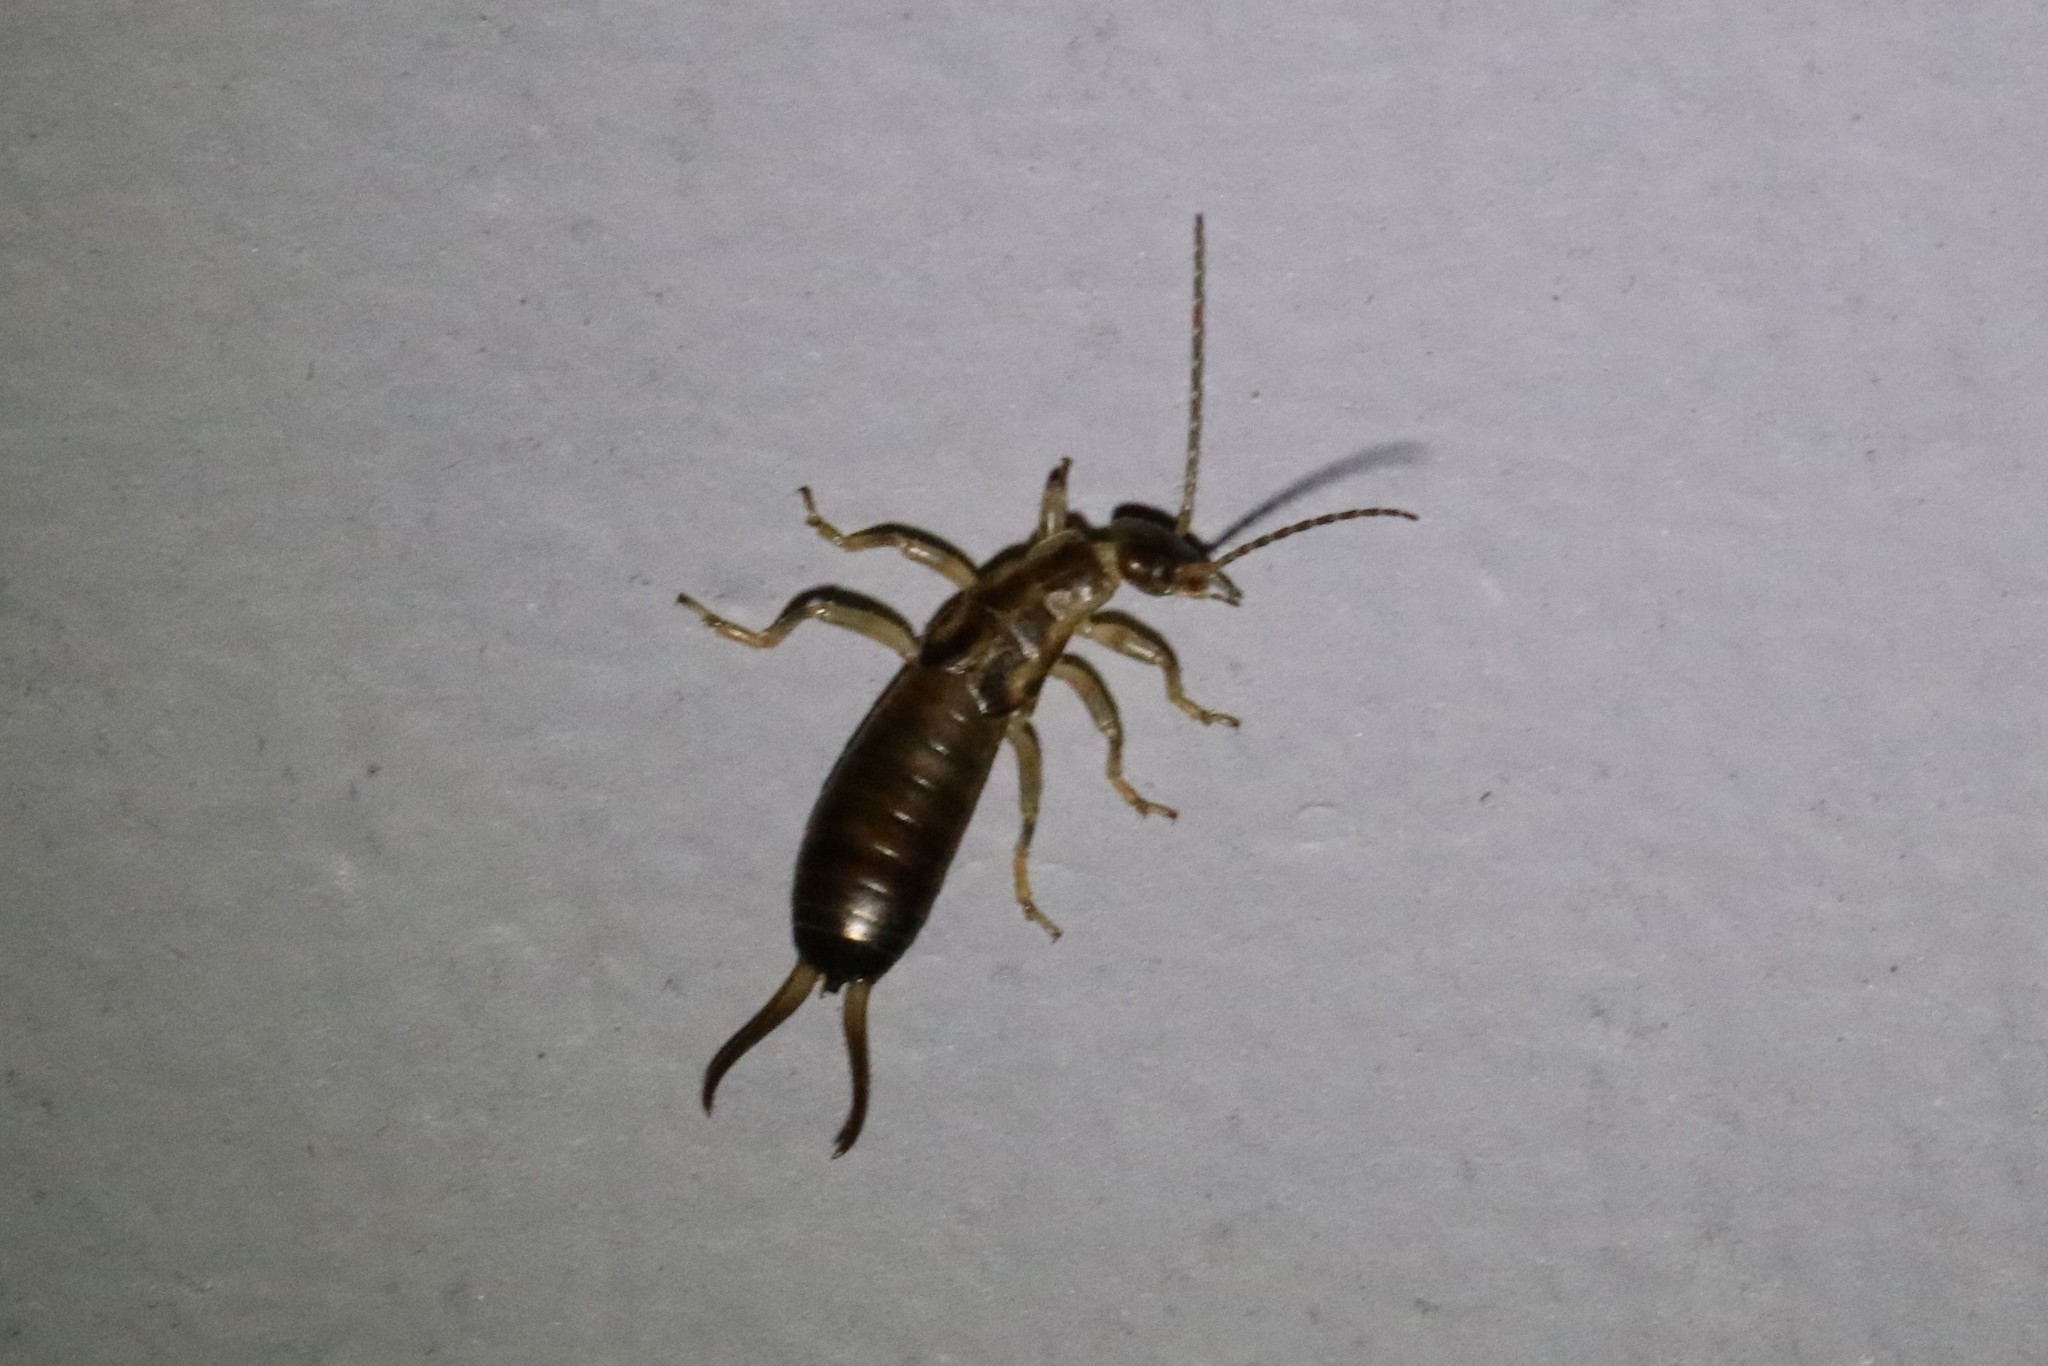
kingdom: Animalia
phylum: Arthropoda
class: Insecta
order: Dermaptera
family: Forficulidae
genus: Forficula
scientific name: Forficula
